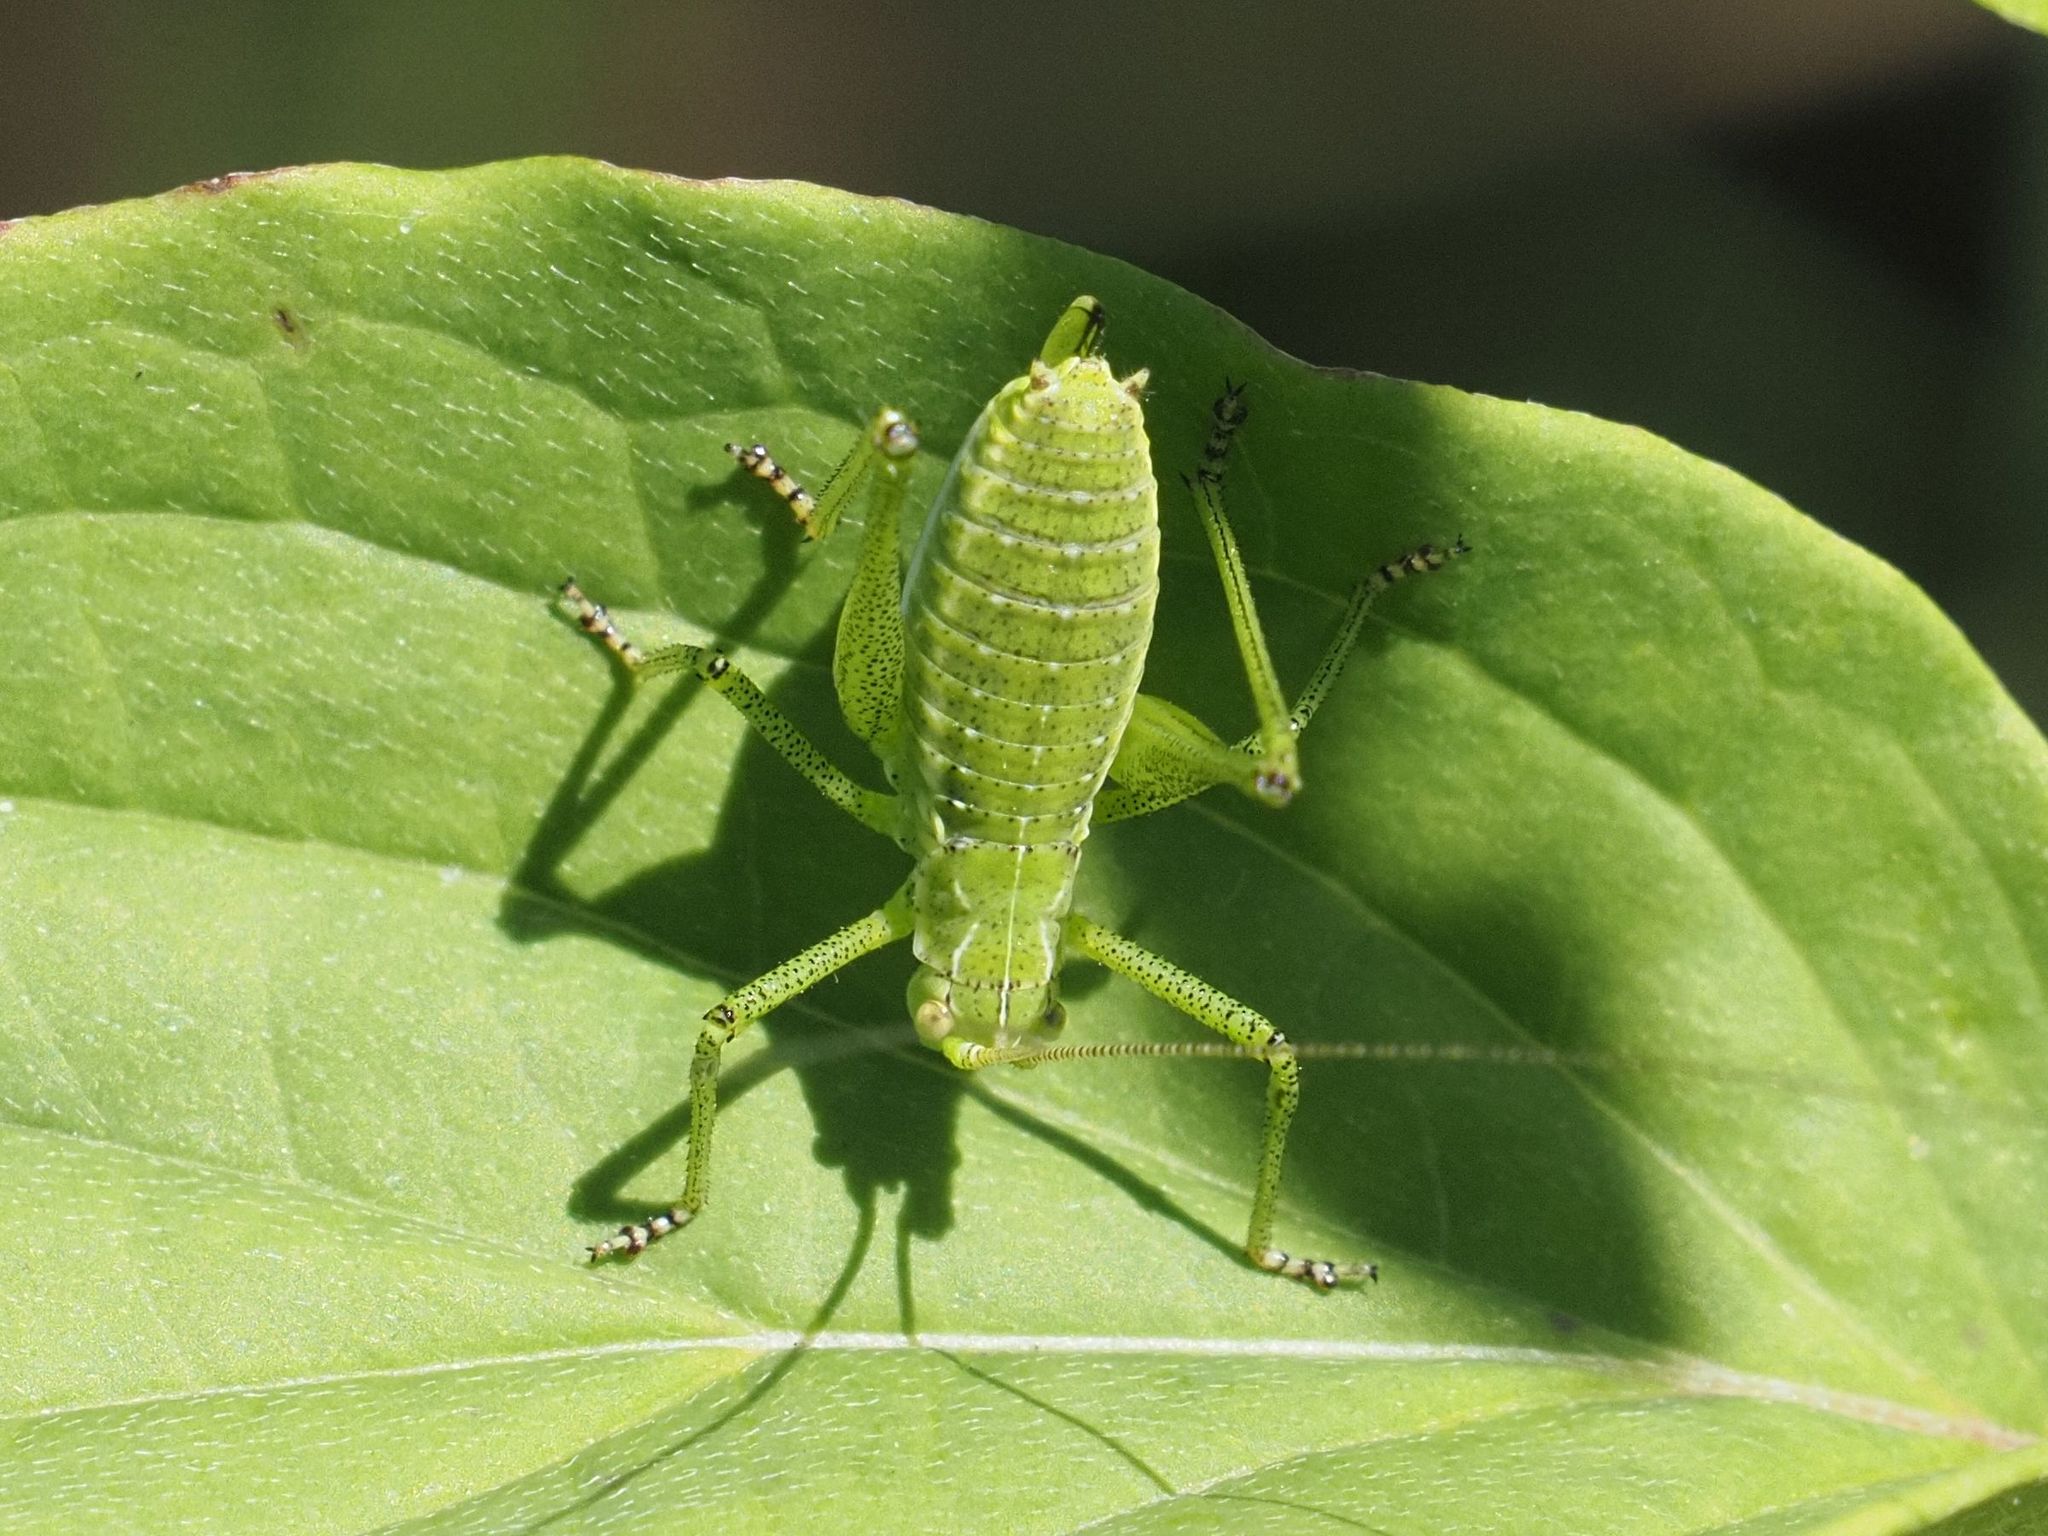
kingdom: Animalia
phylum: Arthropoda
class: Insecta
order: Orthoptera
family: Tettigoniidae
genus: Leptophyes
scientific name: Leptophyes albovittata
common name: Striped bush-cricket
